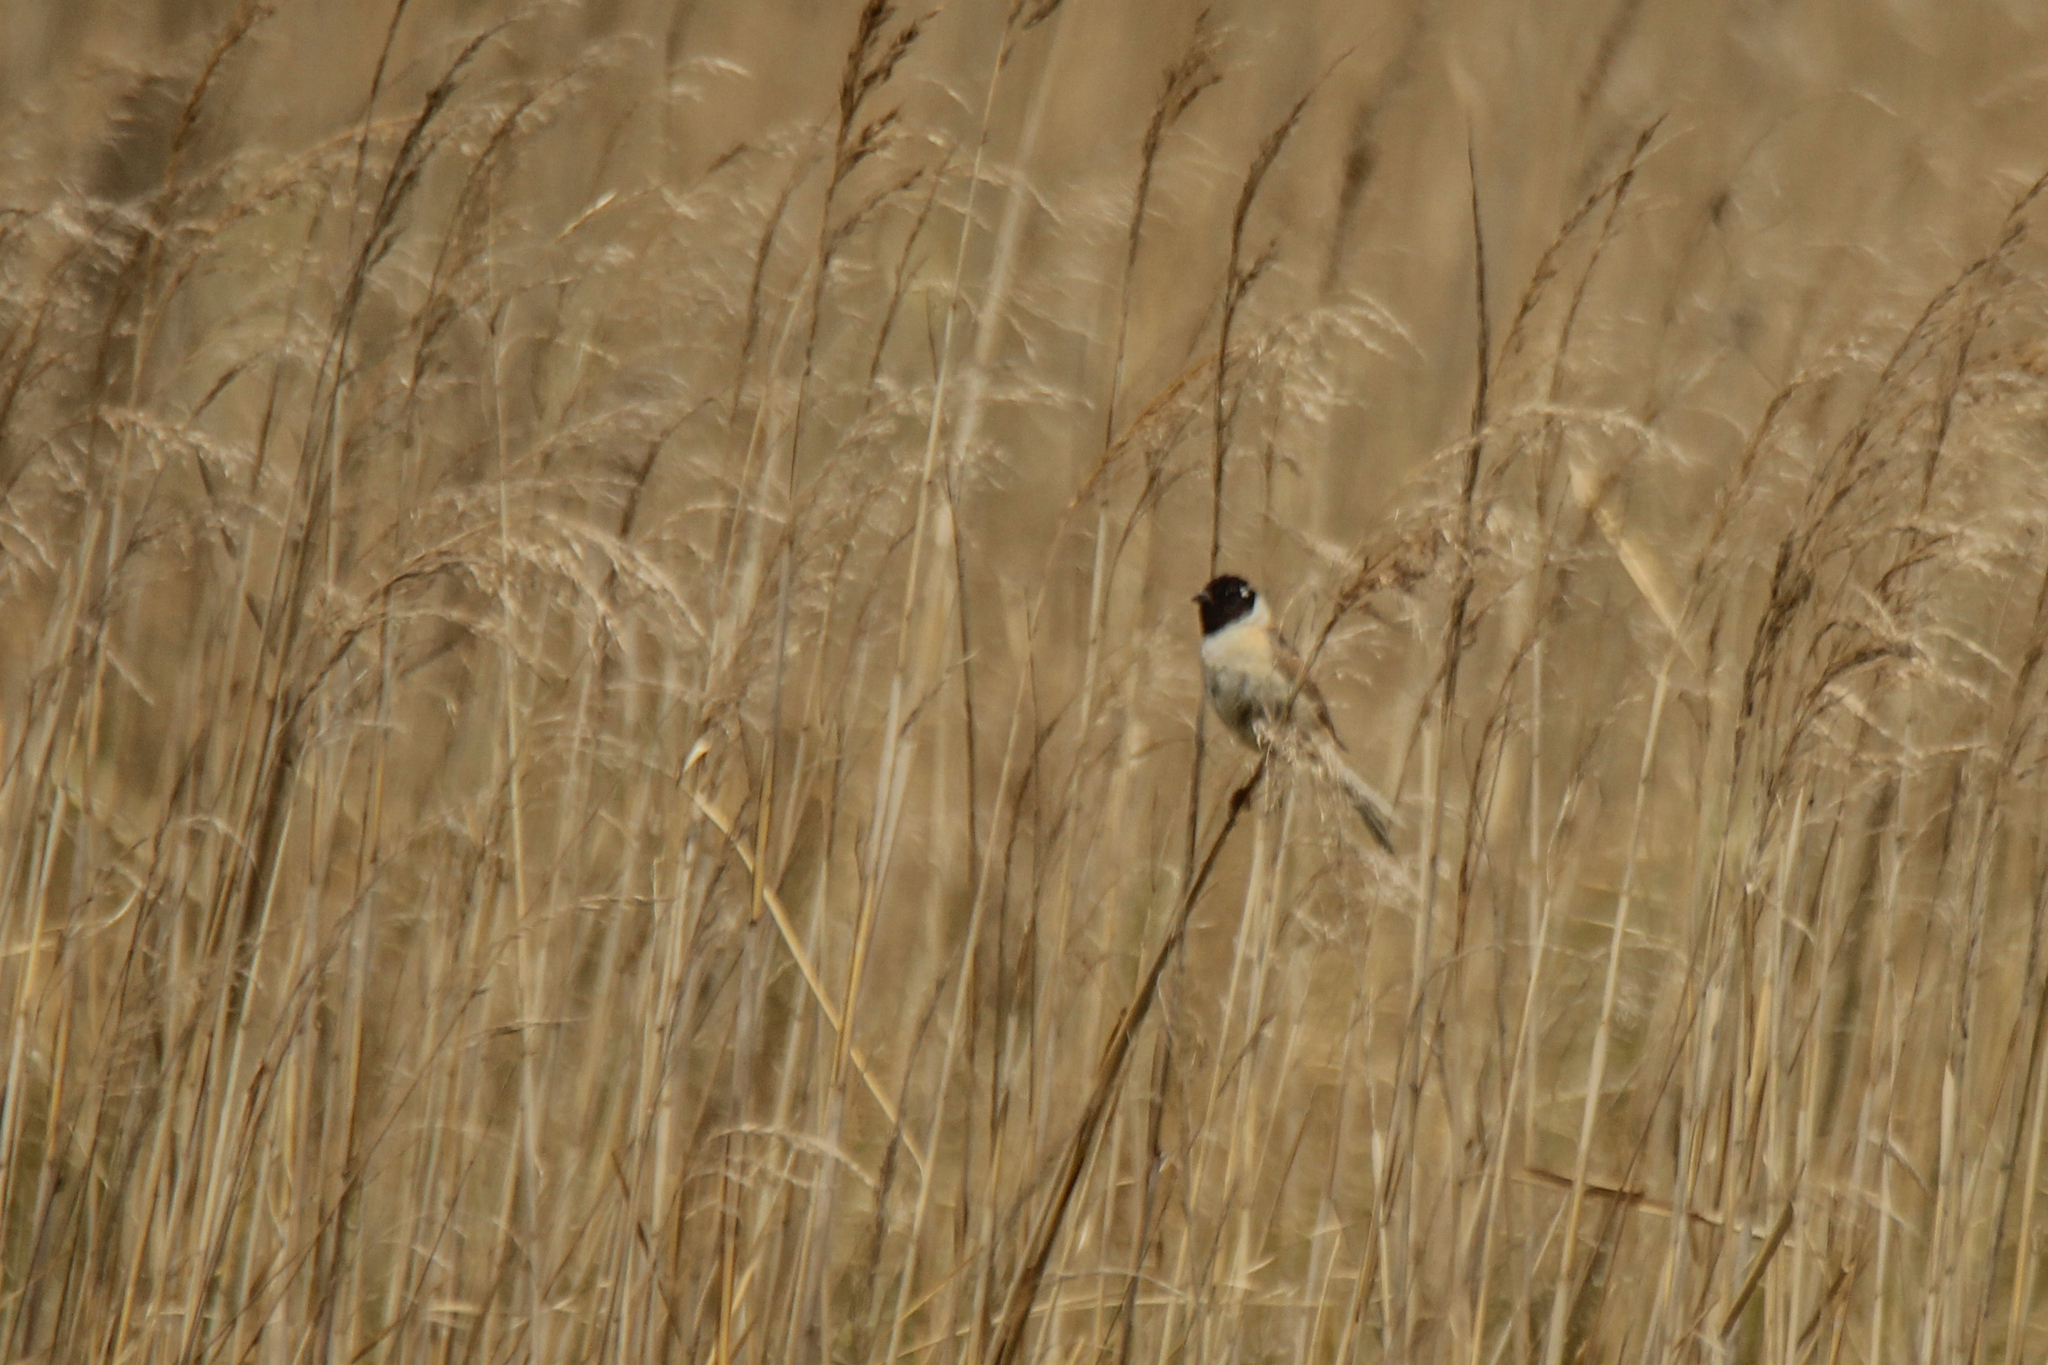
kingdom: Animalia
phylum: Chordata
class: Aves
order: Passeriformes
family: Emberizidae
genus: Emberiza
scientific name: Emberiza yessoensis
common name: Japanese reed bunting
